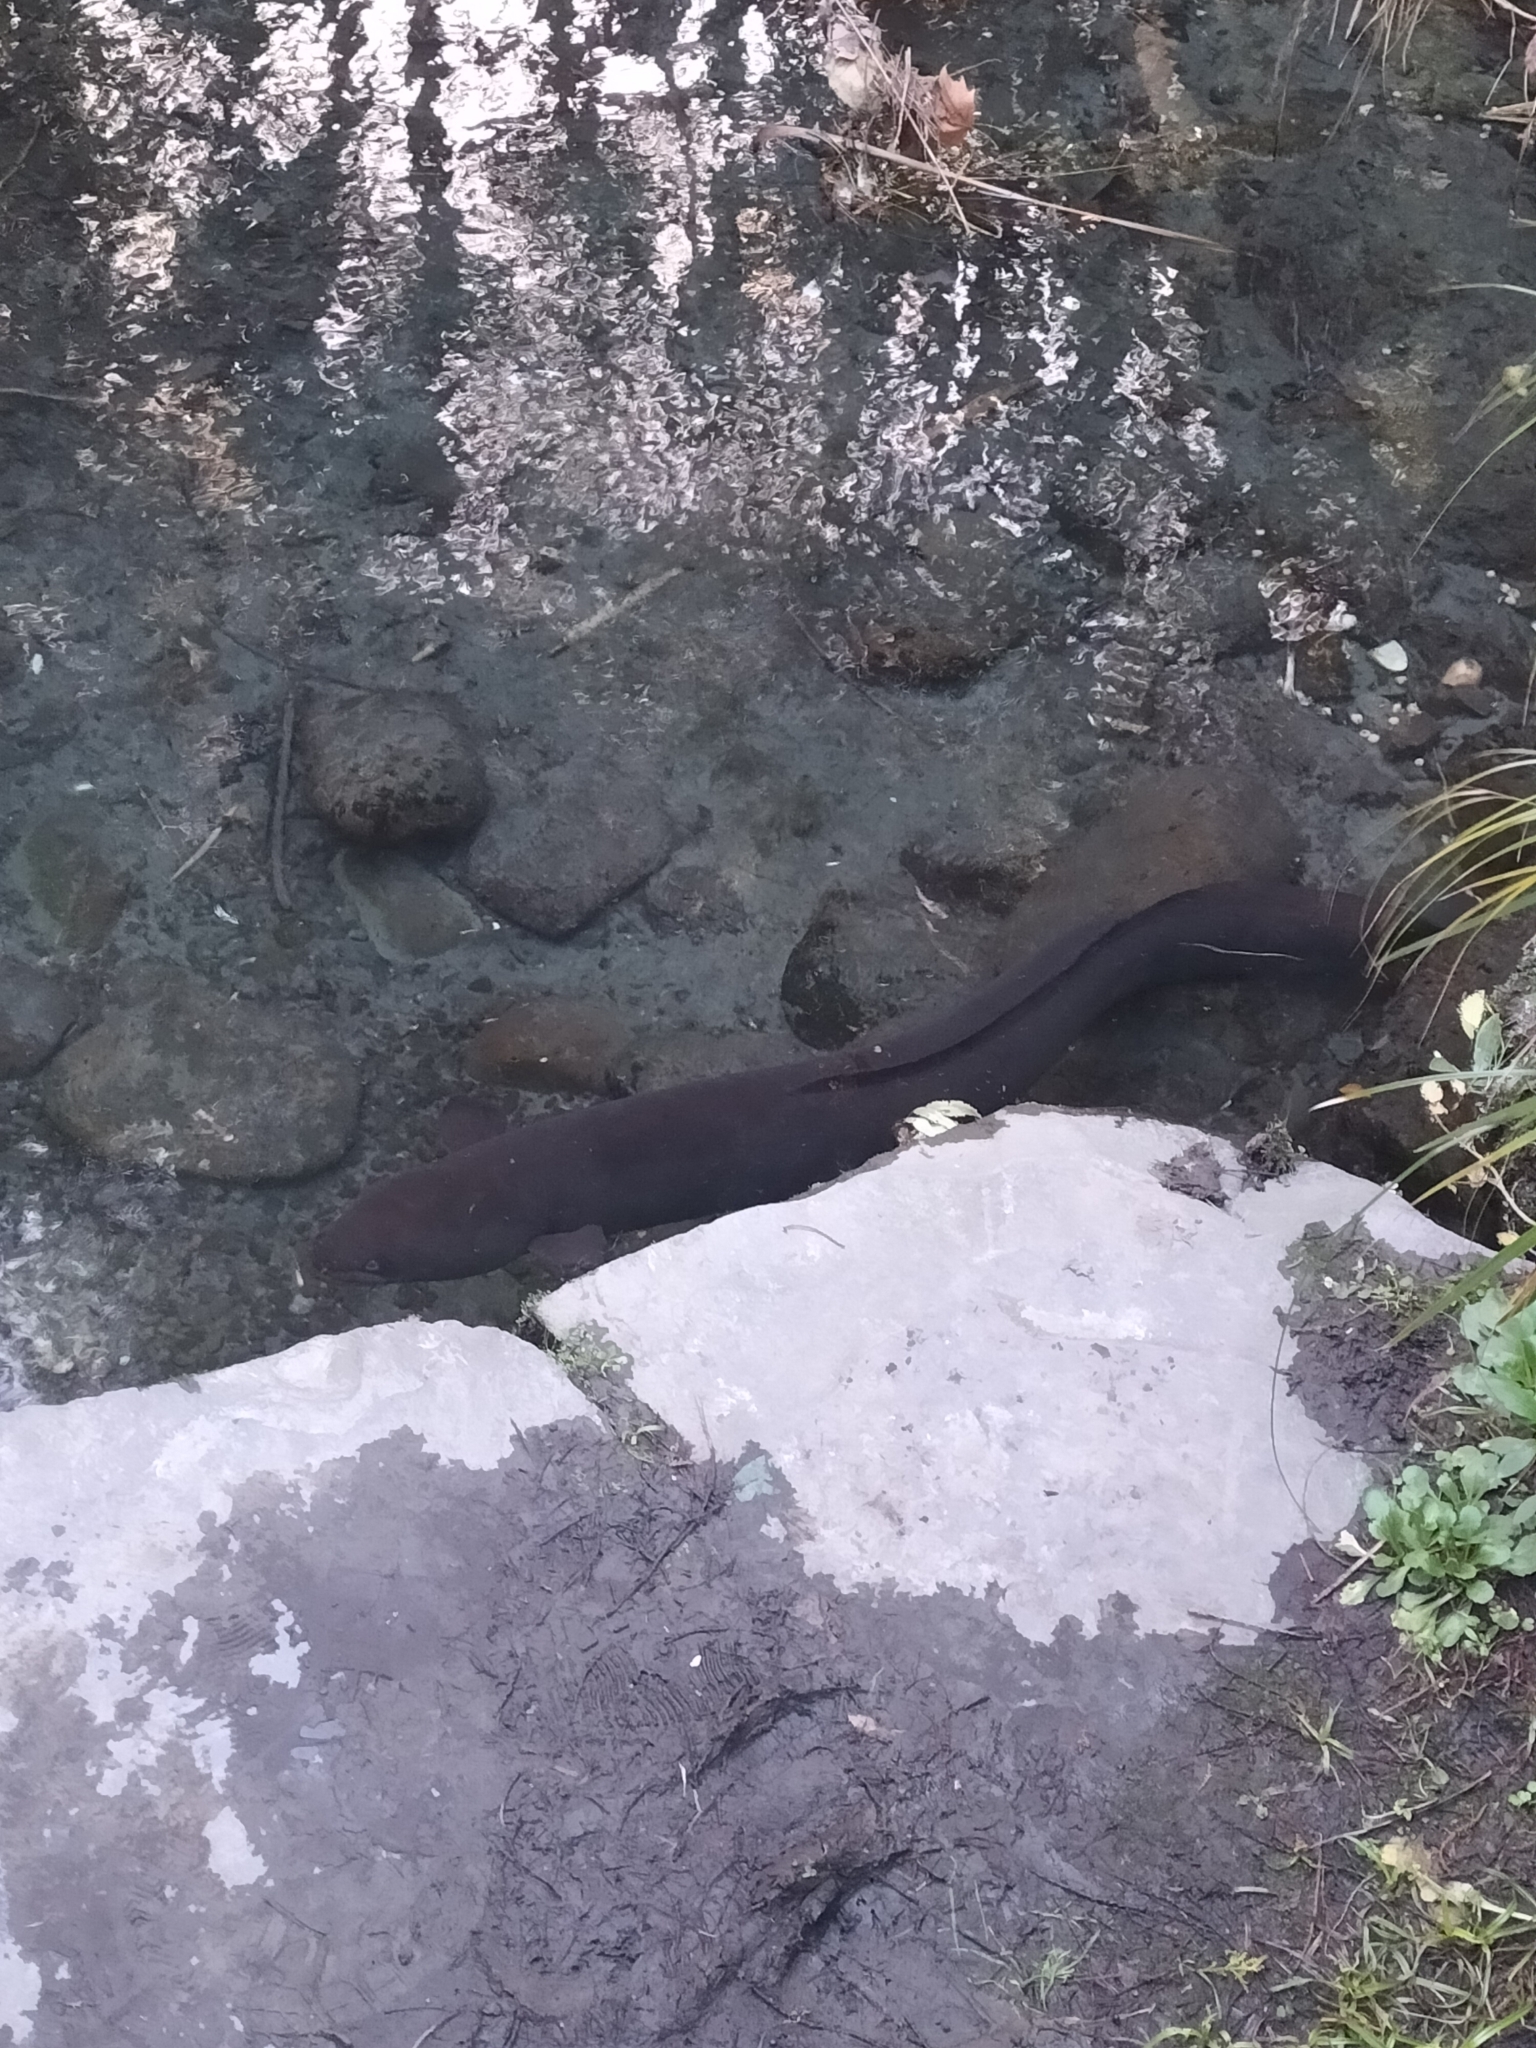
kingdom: Animalia
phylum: Chordata
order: Anguilliformes
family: Anguillidae
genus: Anguilla
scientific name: Anguilla dieffenbachii
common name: New zealand longfin eel
